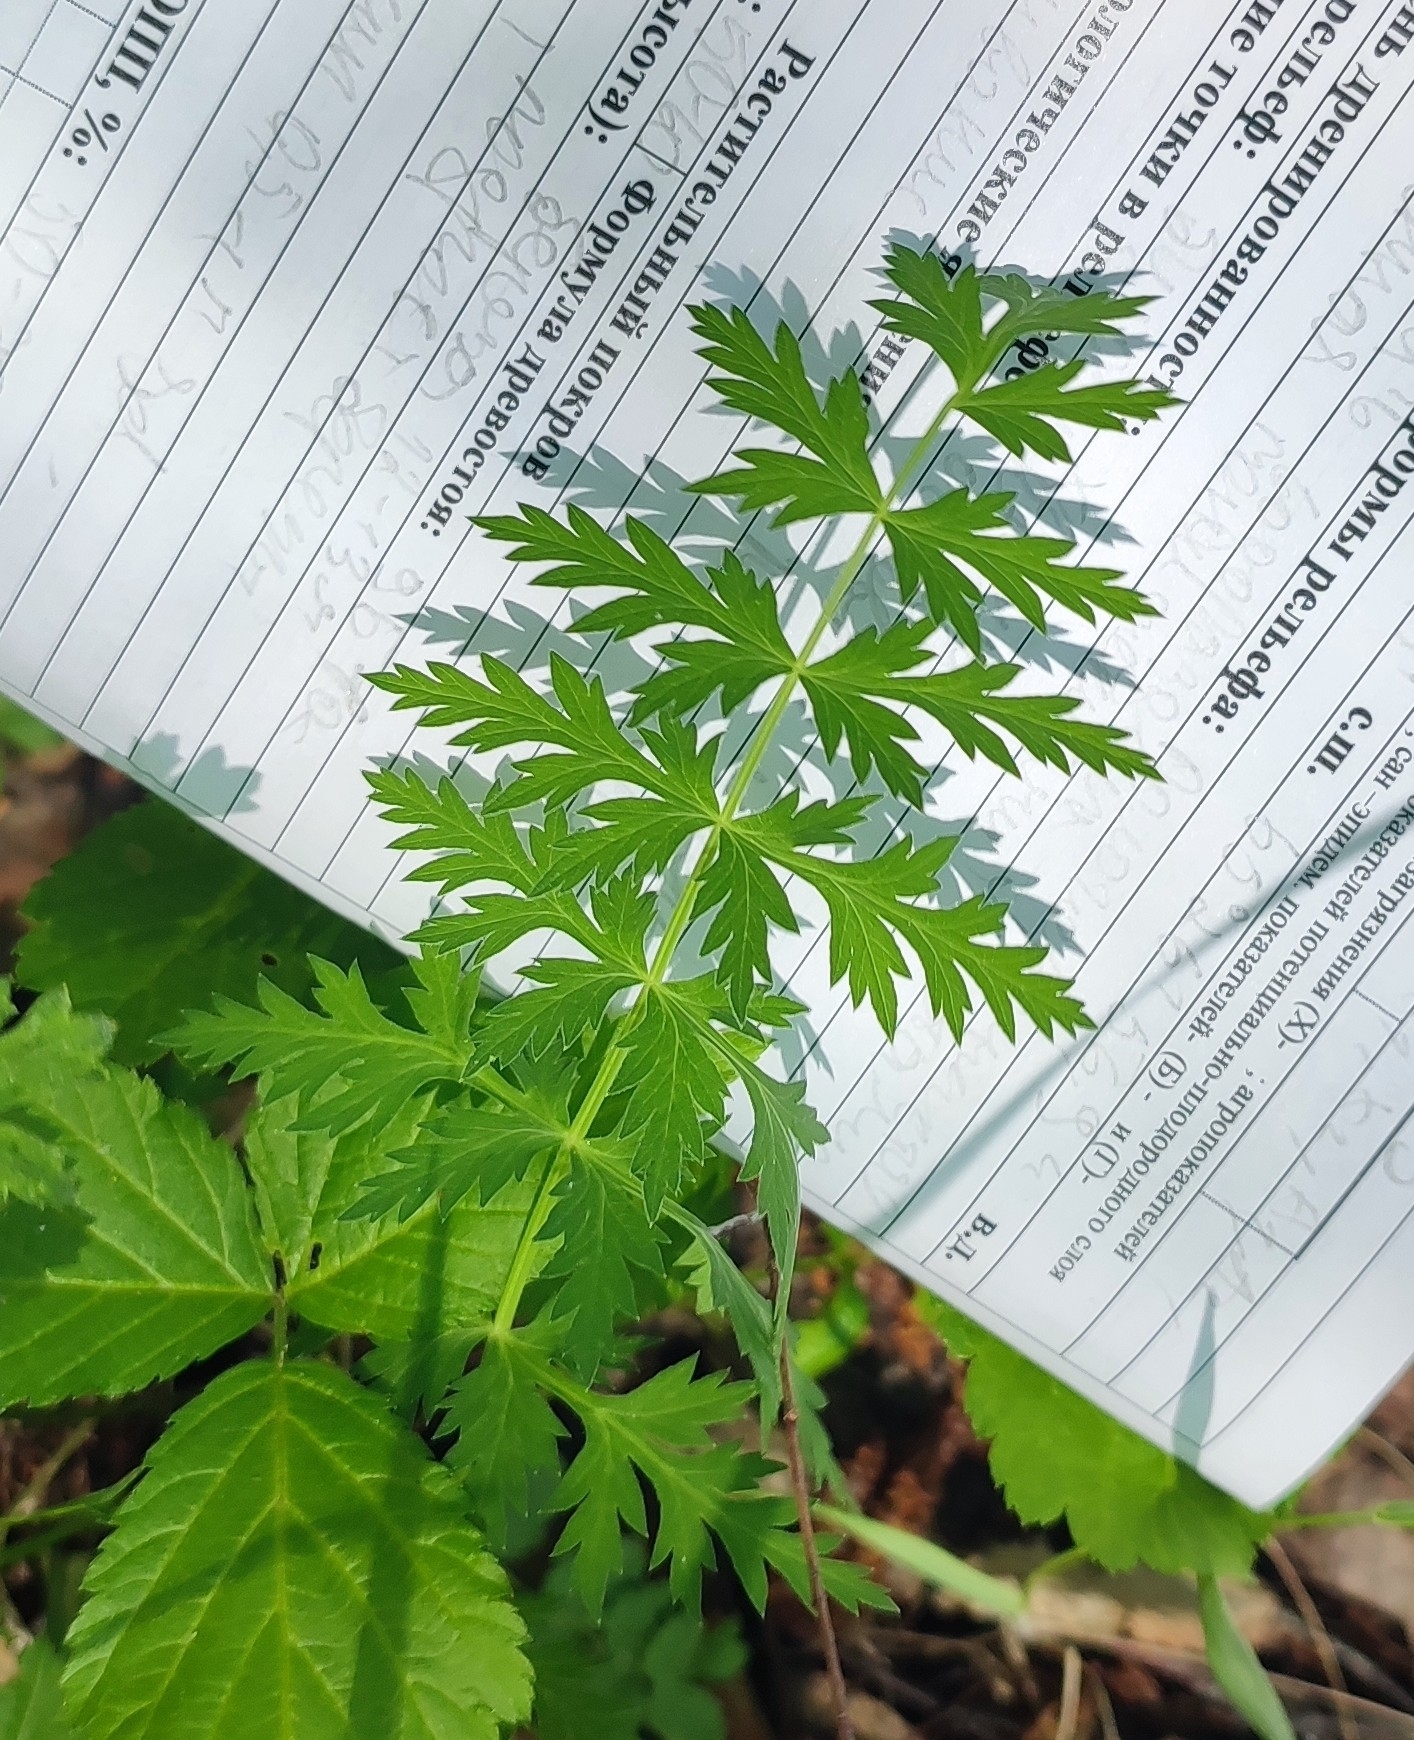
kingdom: Plantae
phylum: Tracheophyta
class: Magnoliopsida
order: Apiales
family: Apiaceae
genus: Seseli
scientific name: Seseli libanotis
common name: Mooncarrot
